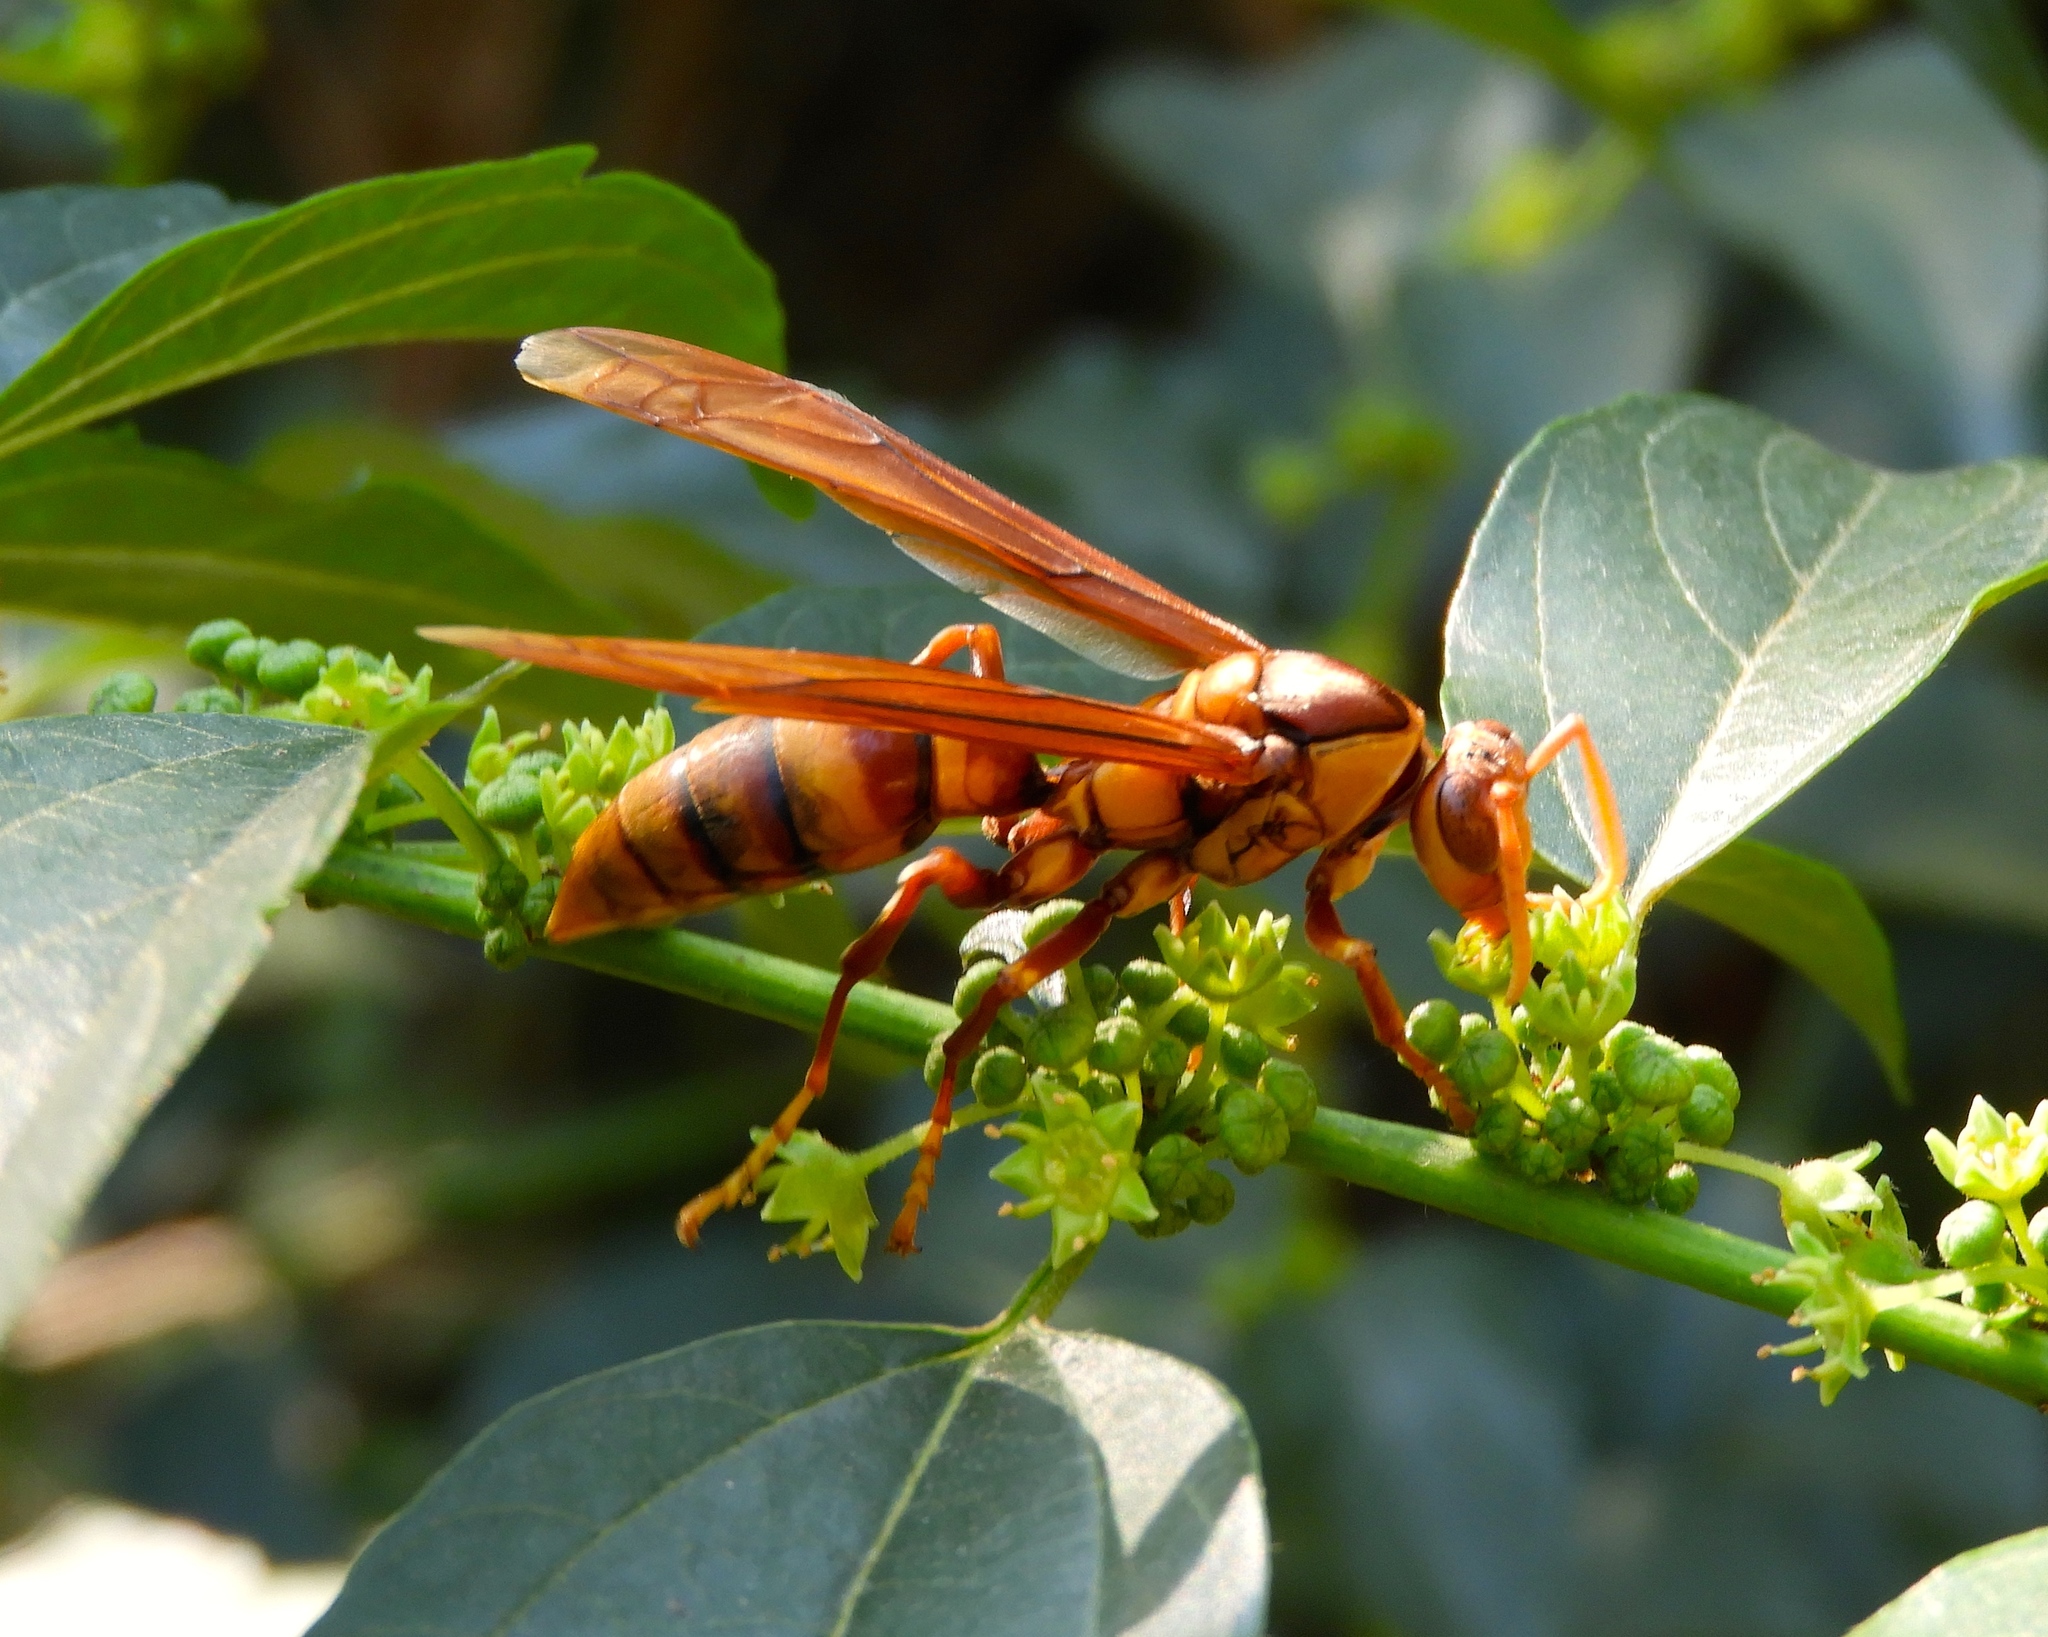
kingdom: Animalia
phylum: Arthropoda
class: Insecta
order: Hymenoptera
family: Eumenidae
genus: Polistes
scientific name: Polistes carnifex
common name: Paper wasp
